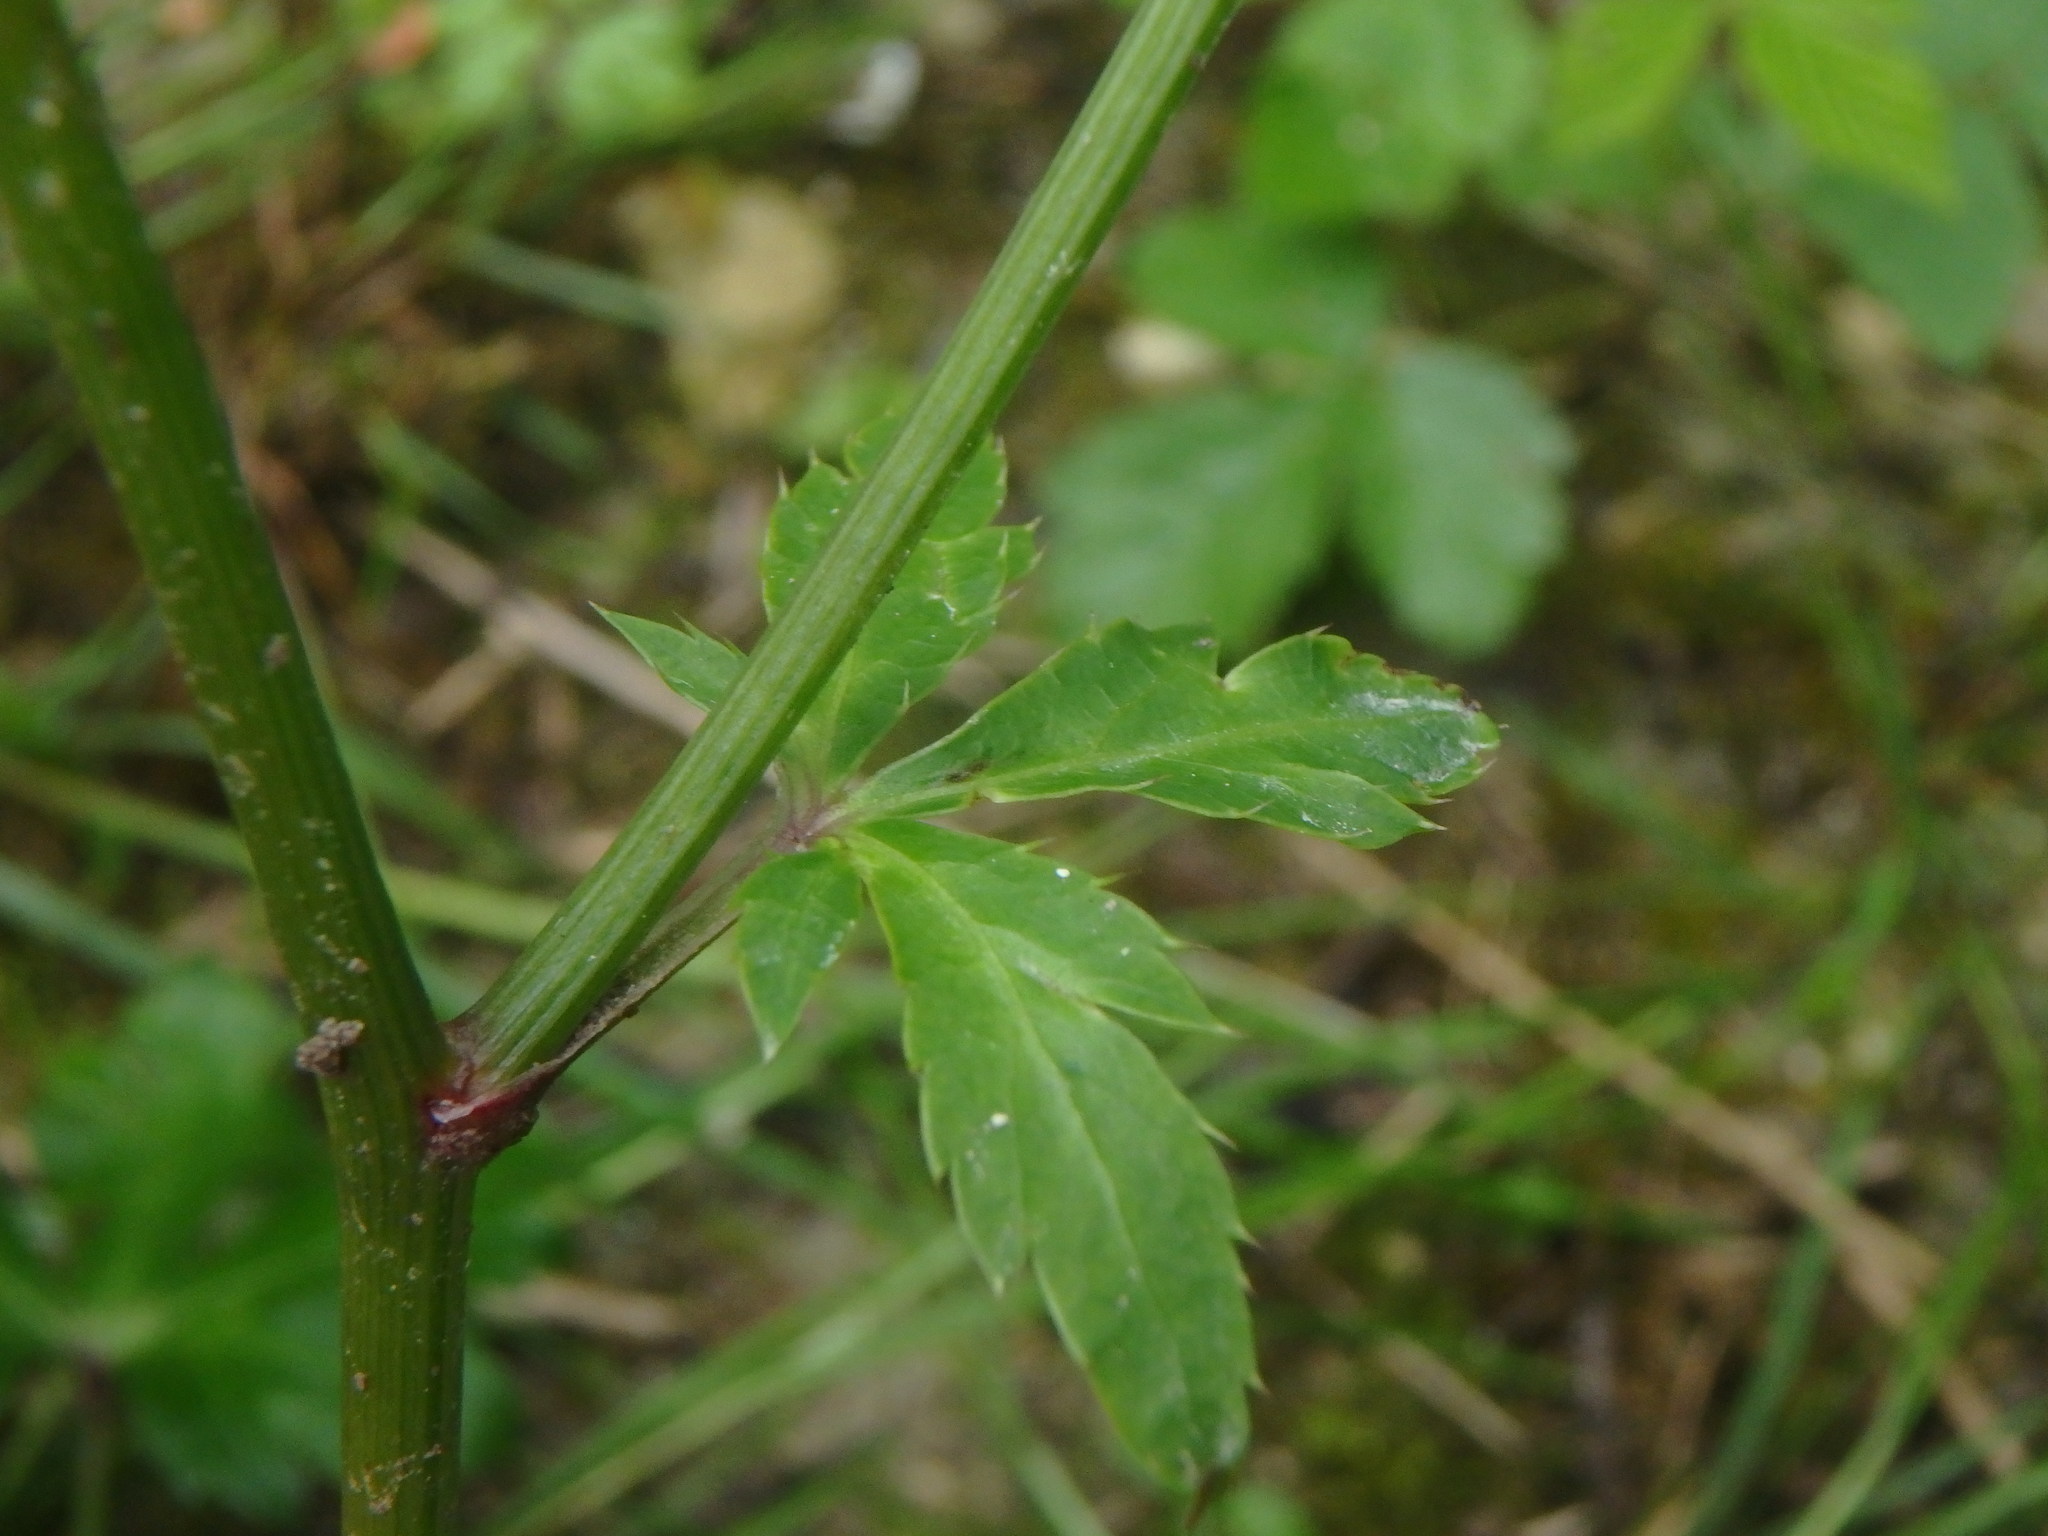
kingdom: Plantae
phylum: Tracheophyta
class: Magnoliopsida
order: Apiales
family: Apiaceae
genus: Sanicula
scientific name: Sanicula europaea
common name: Sanicle
